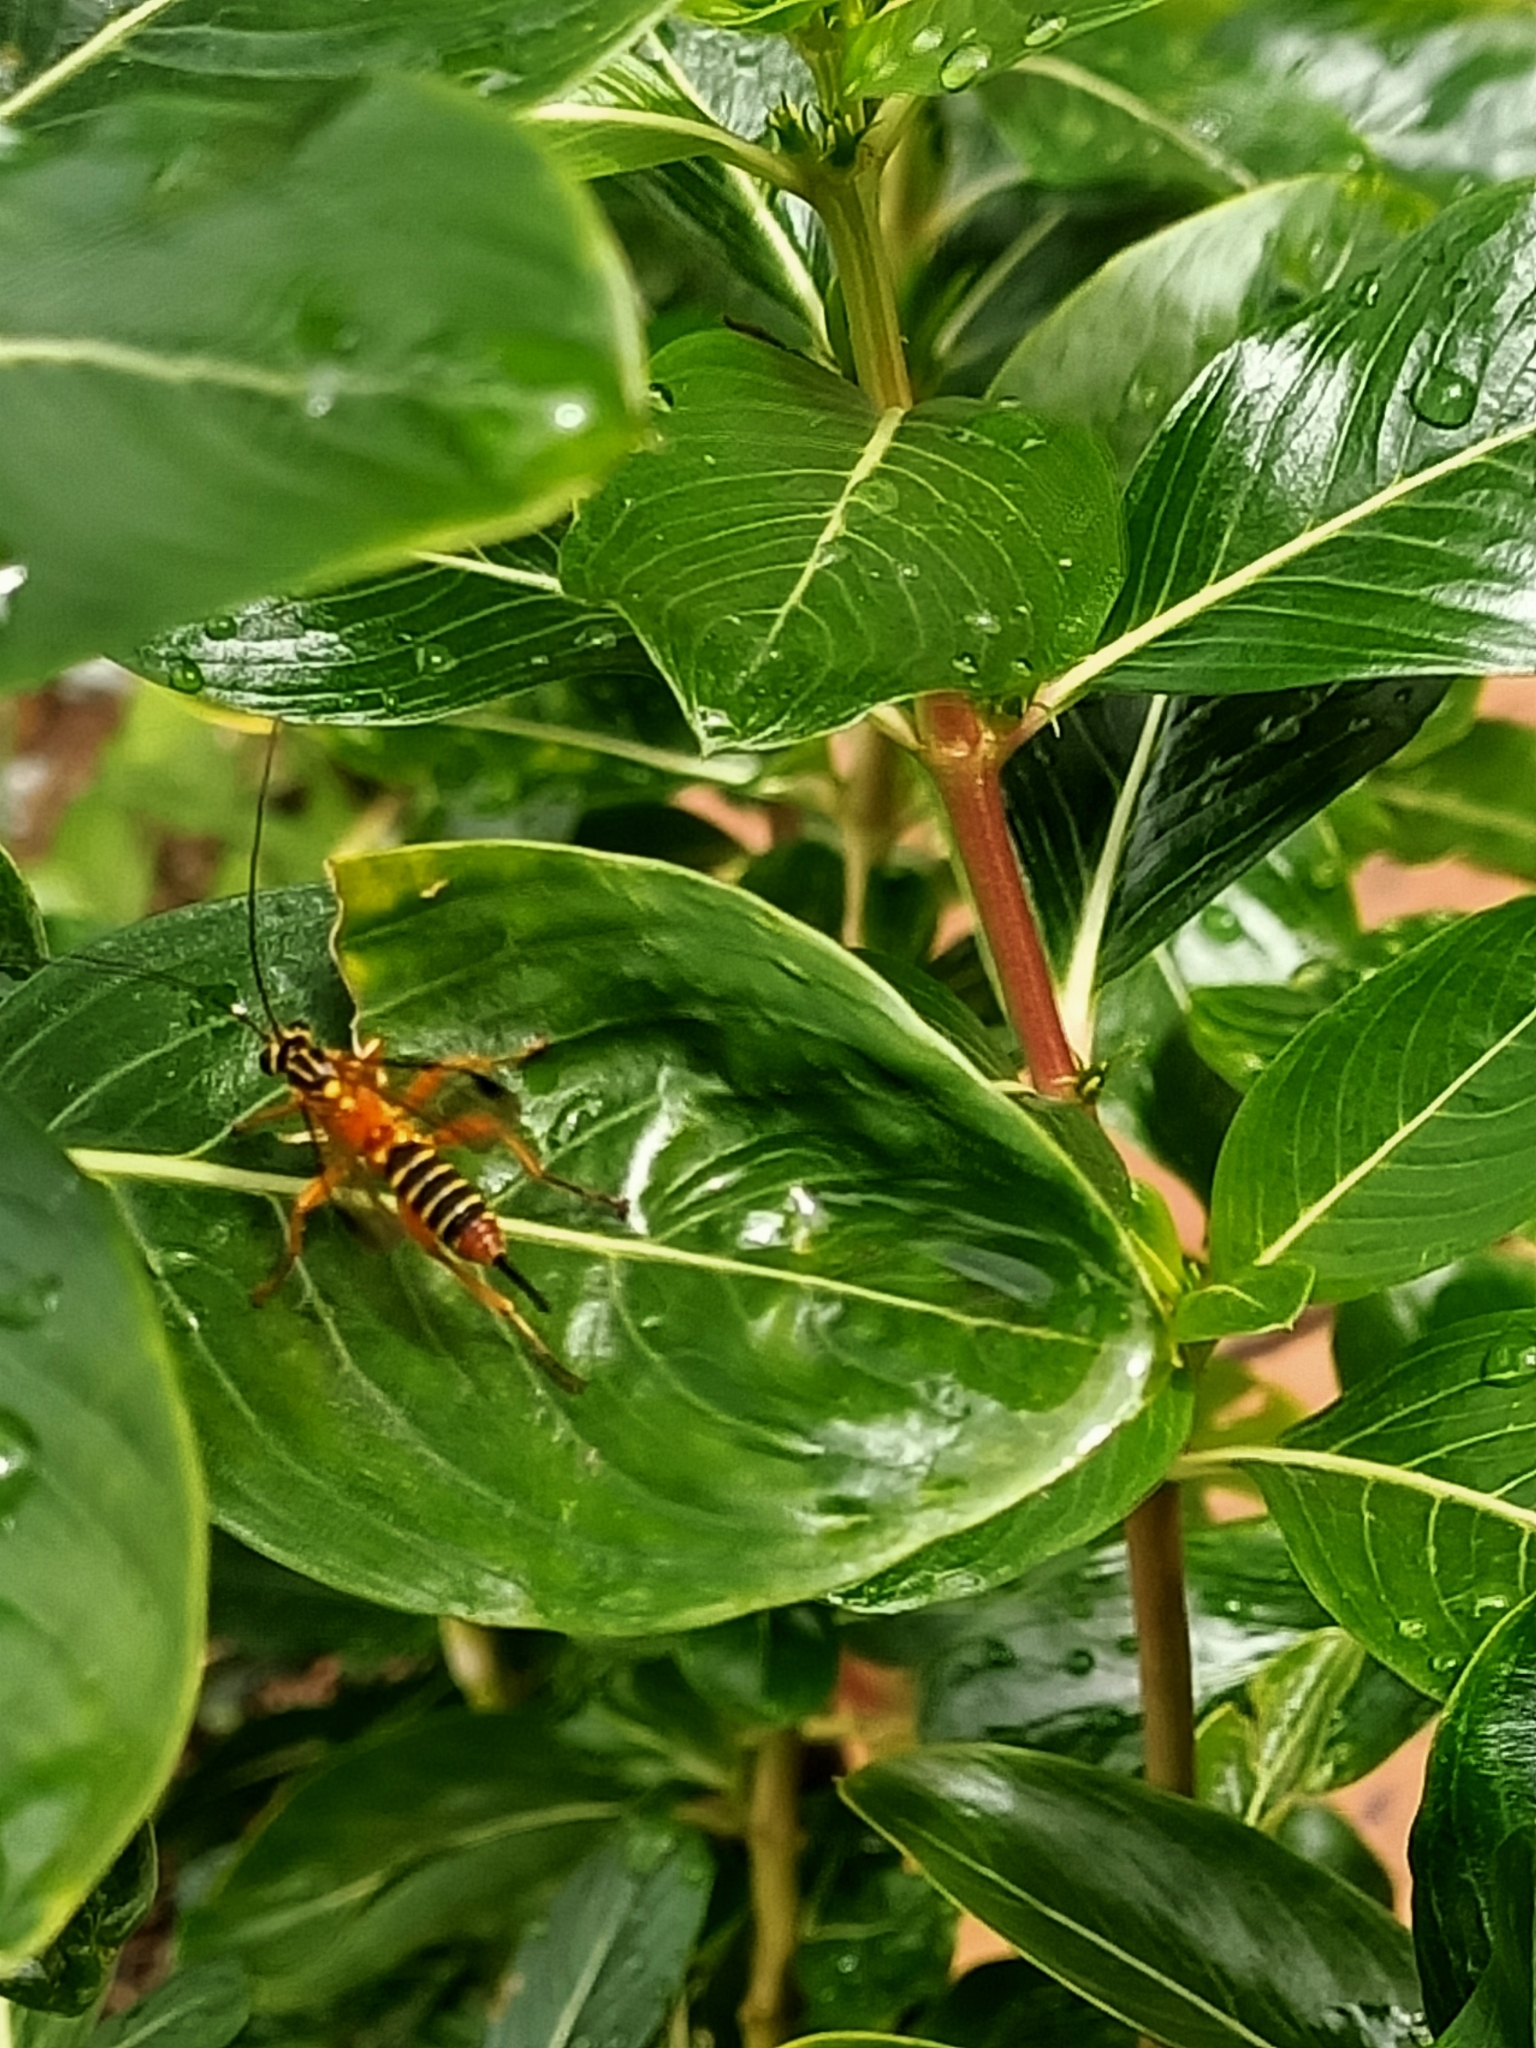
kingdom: Animalia
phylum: Arthropoda
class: Insecta
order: Hymenoptera
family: Ichneumonidae
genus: Echthromorpha
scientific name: Echthromorpha agrestoria
